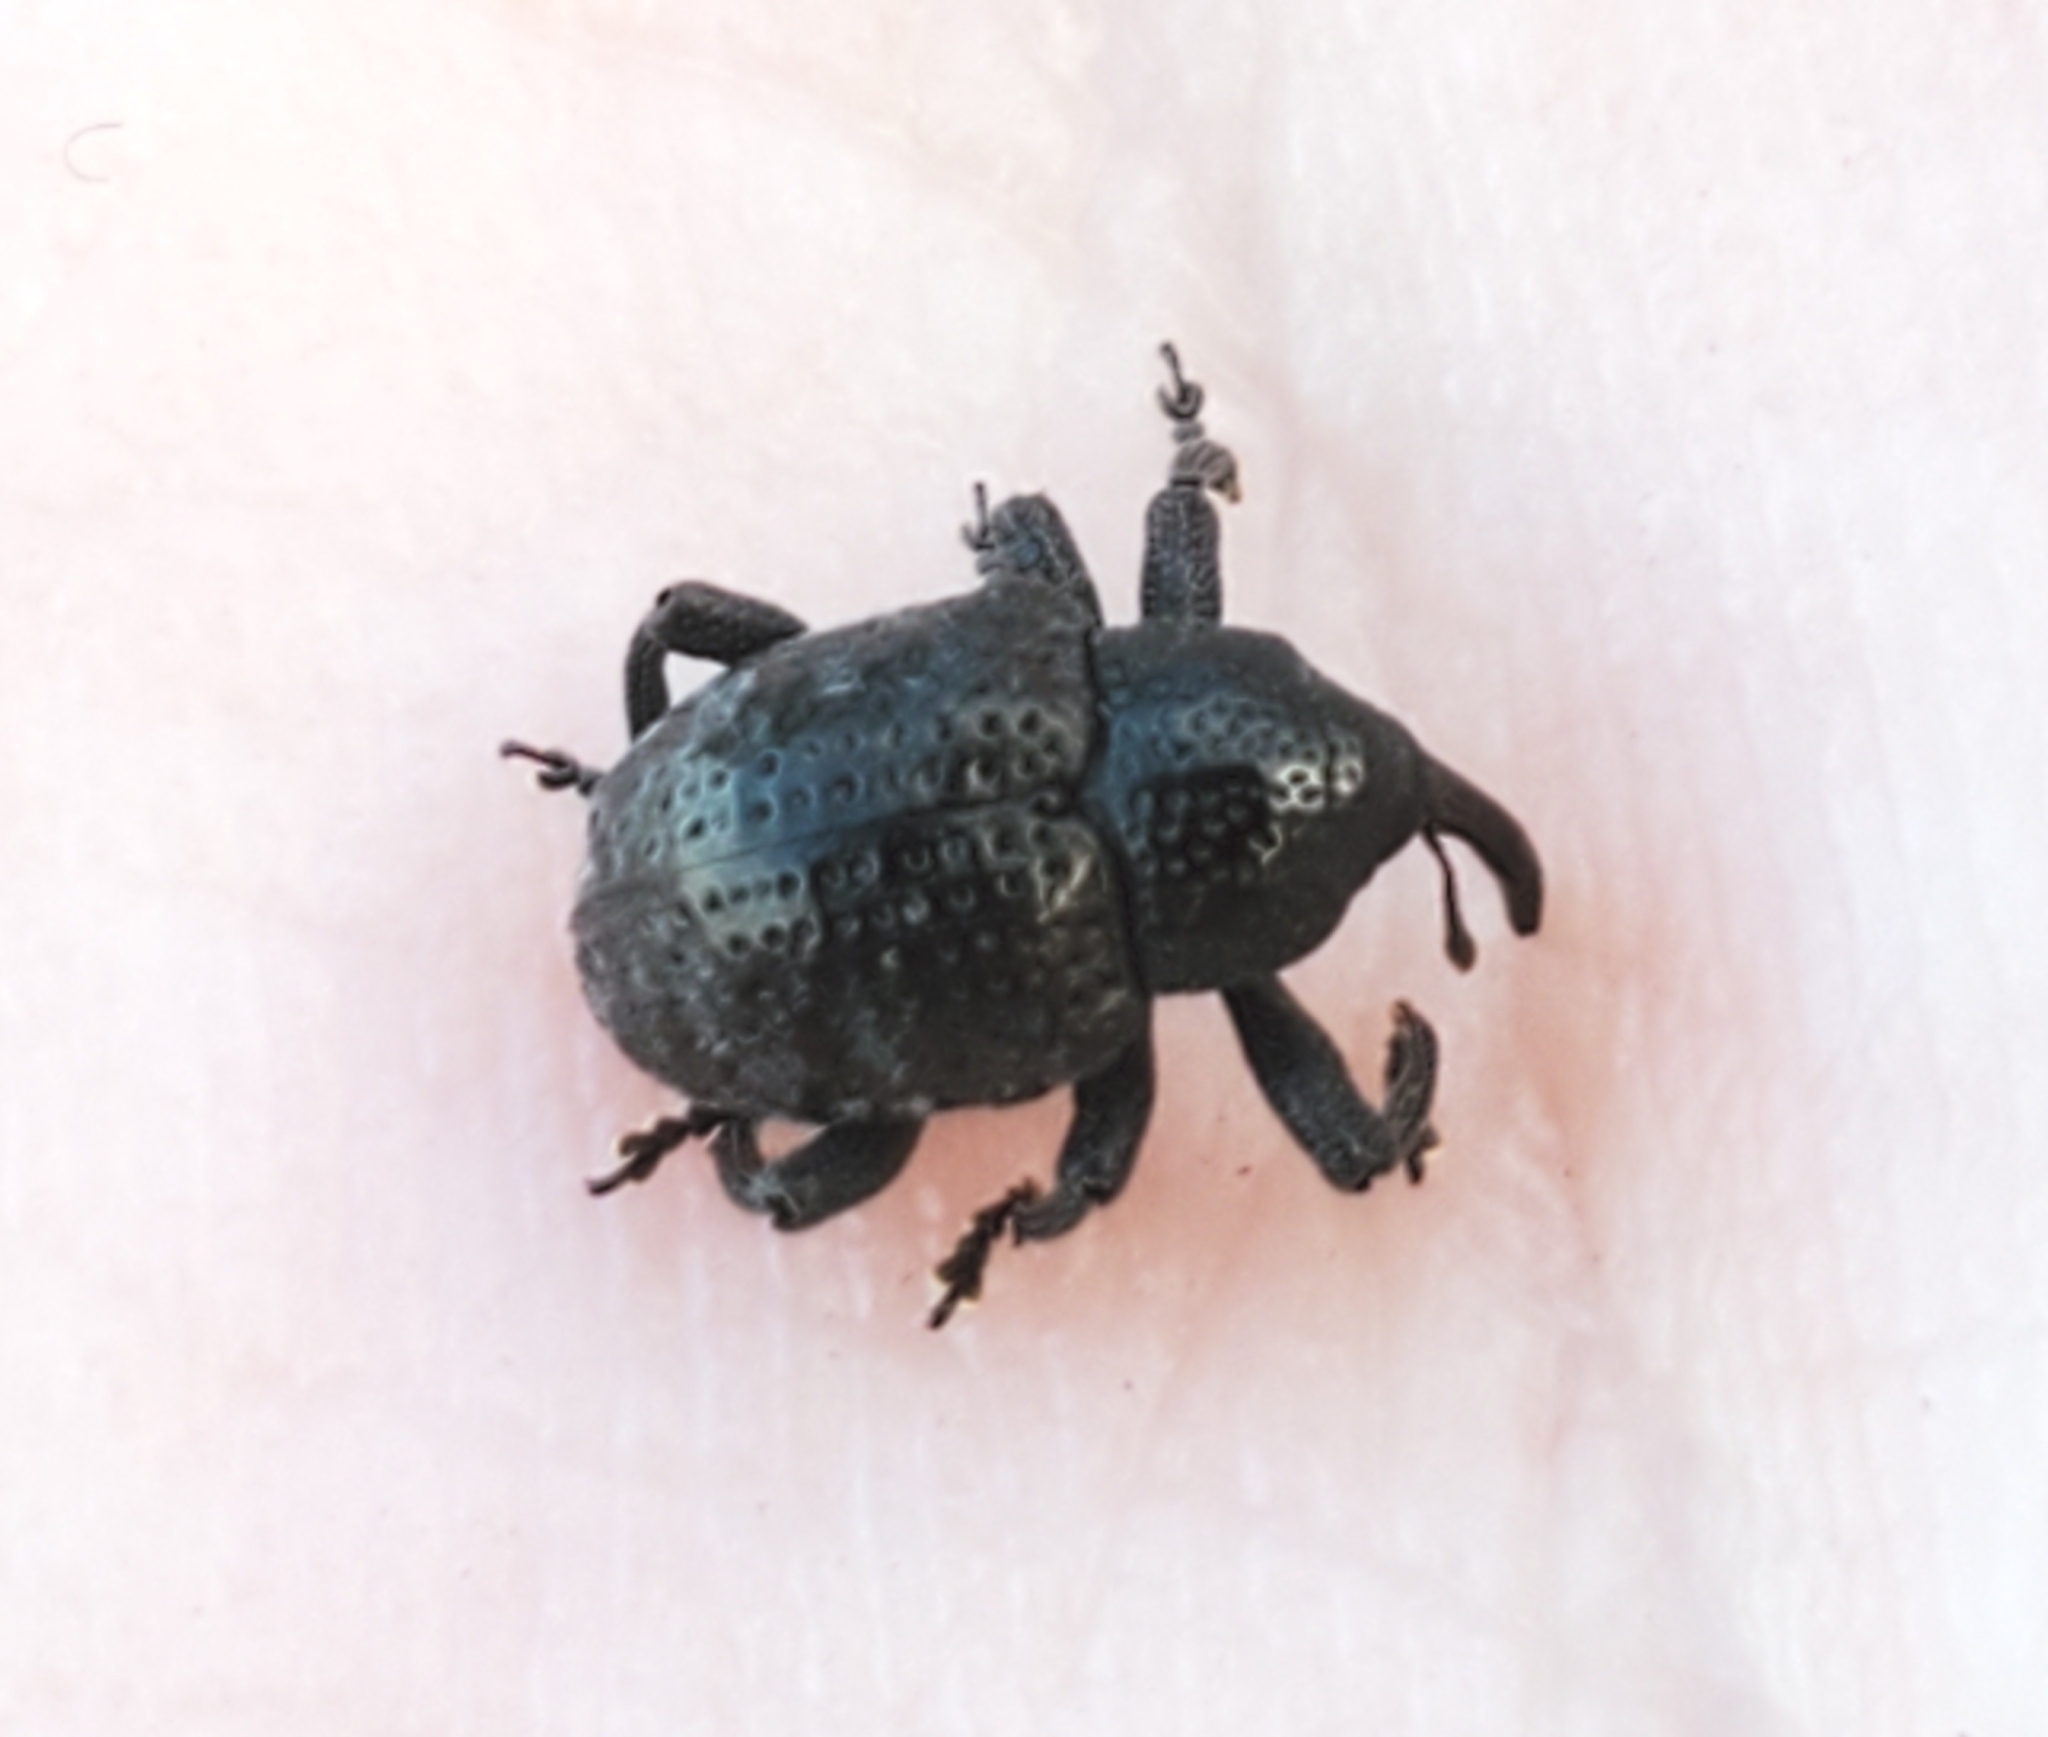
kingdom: Animalia
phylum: Arthropoda
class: Insecta
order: Coleoptera
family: Curculionidae
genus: Chalcodermus
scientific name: Chalcodermus aeneus
